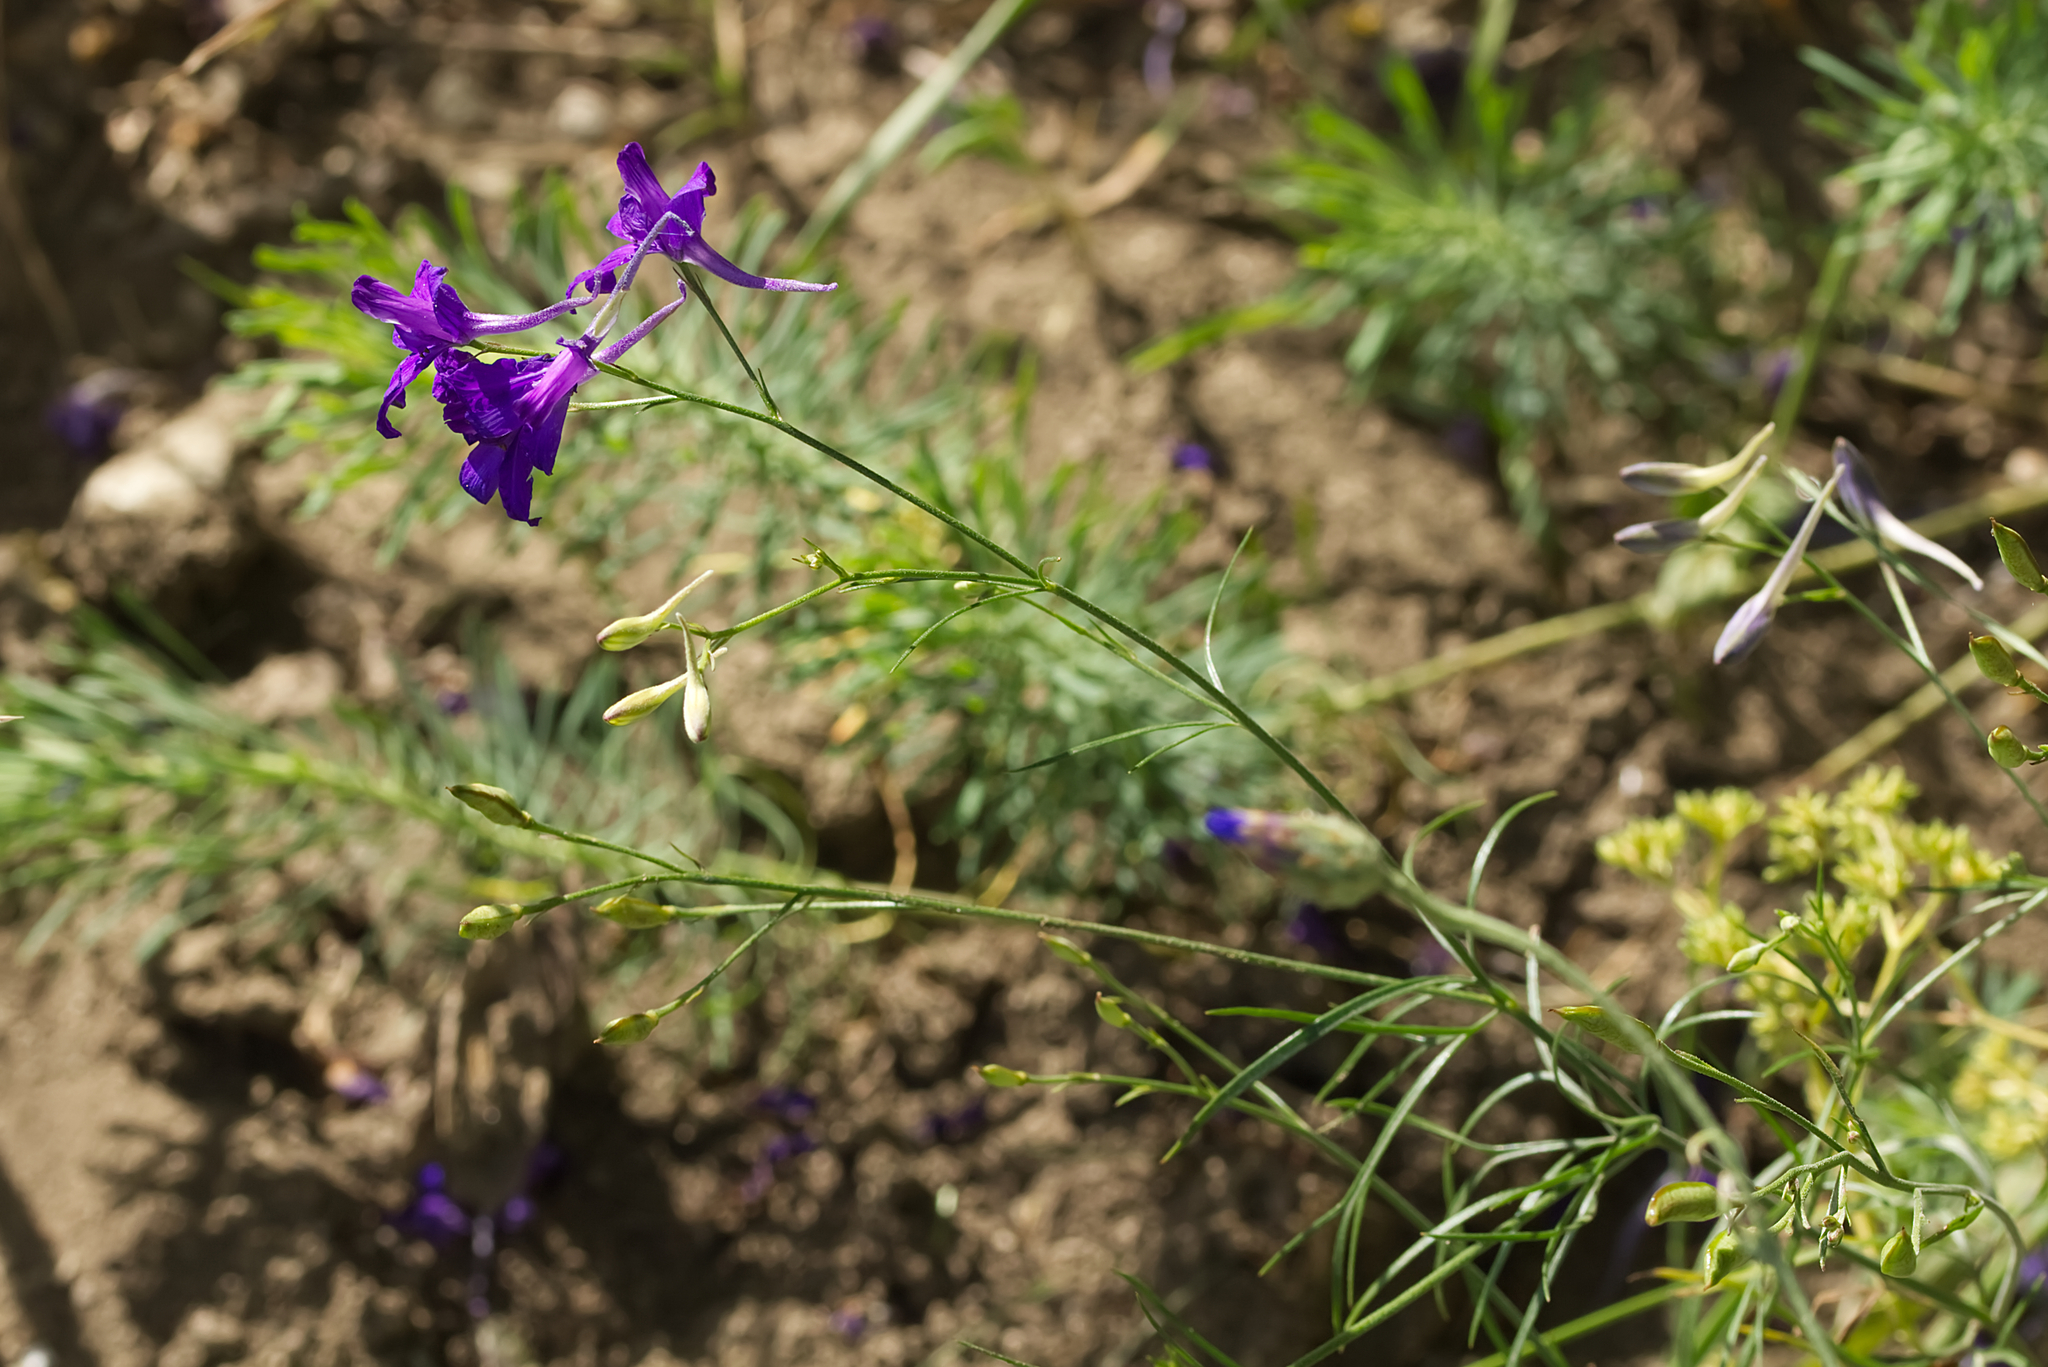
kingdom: Plantae
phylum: Tracheophyta
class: Magnoliopsida
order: Ranunculales
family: Ranunculaceae
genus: Delphinium
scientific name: Delphinium consolida
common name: Branching larkspur
